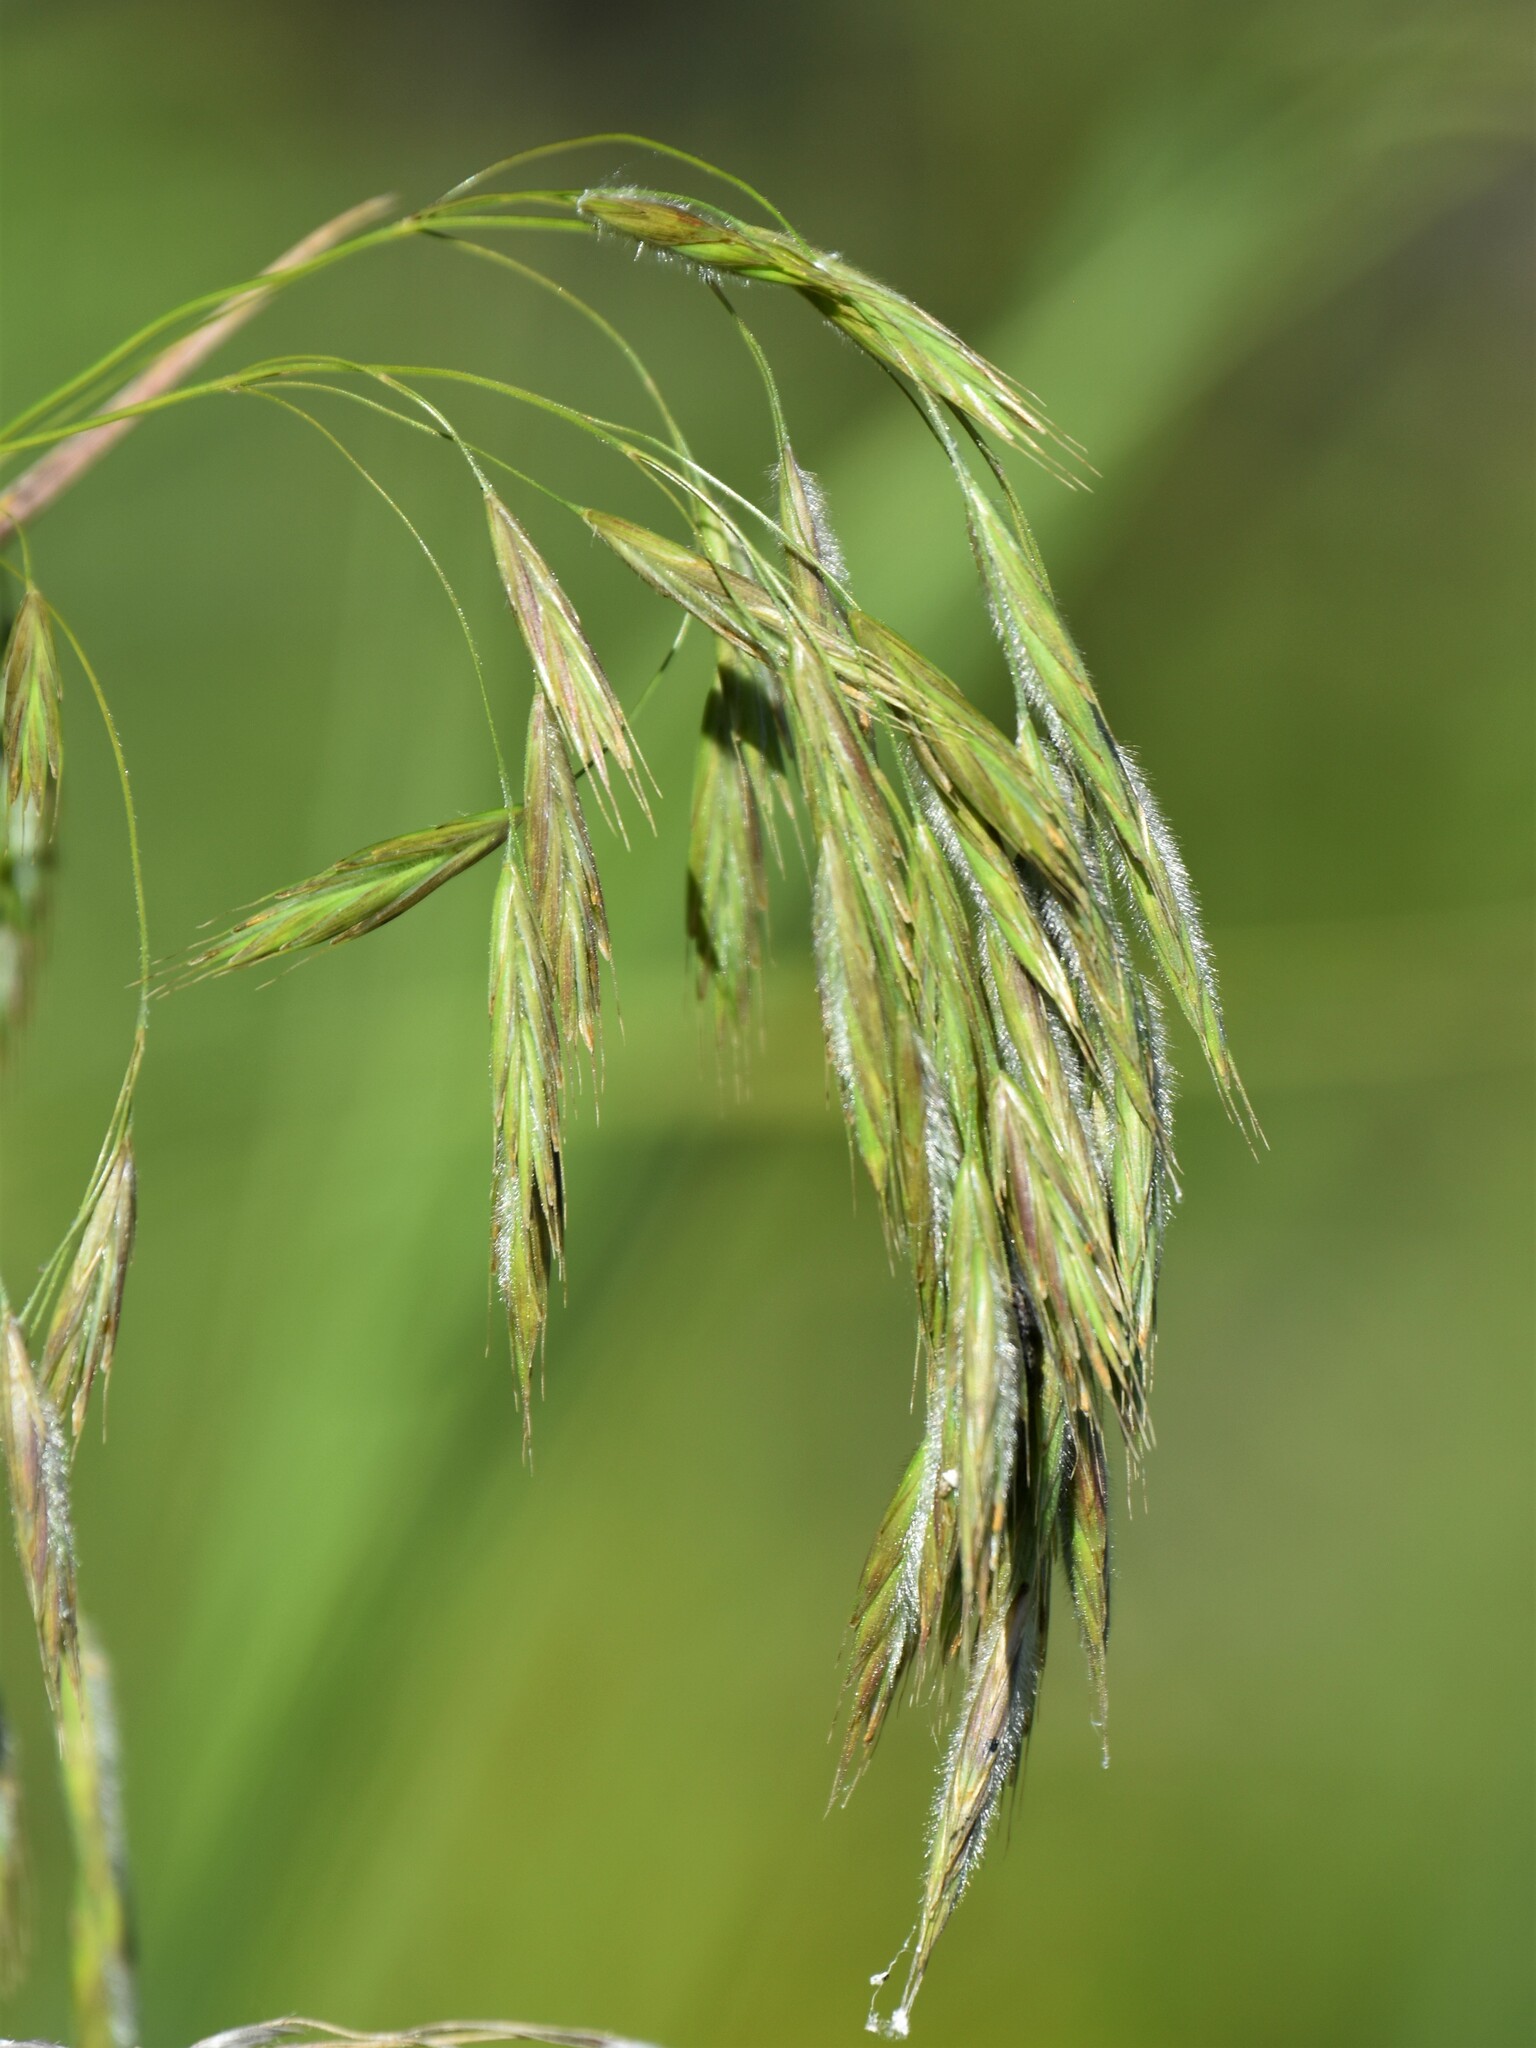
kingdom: Plantae
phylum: Tracheophyta
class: Liliopsida
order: Poales
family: Poaceae
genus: Bromus
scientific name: Bromus ciliatus
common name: Fringe brome
